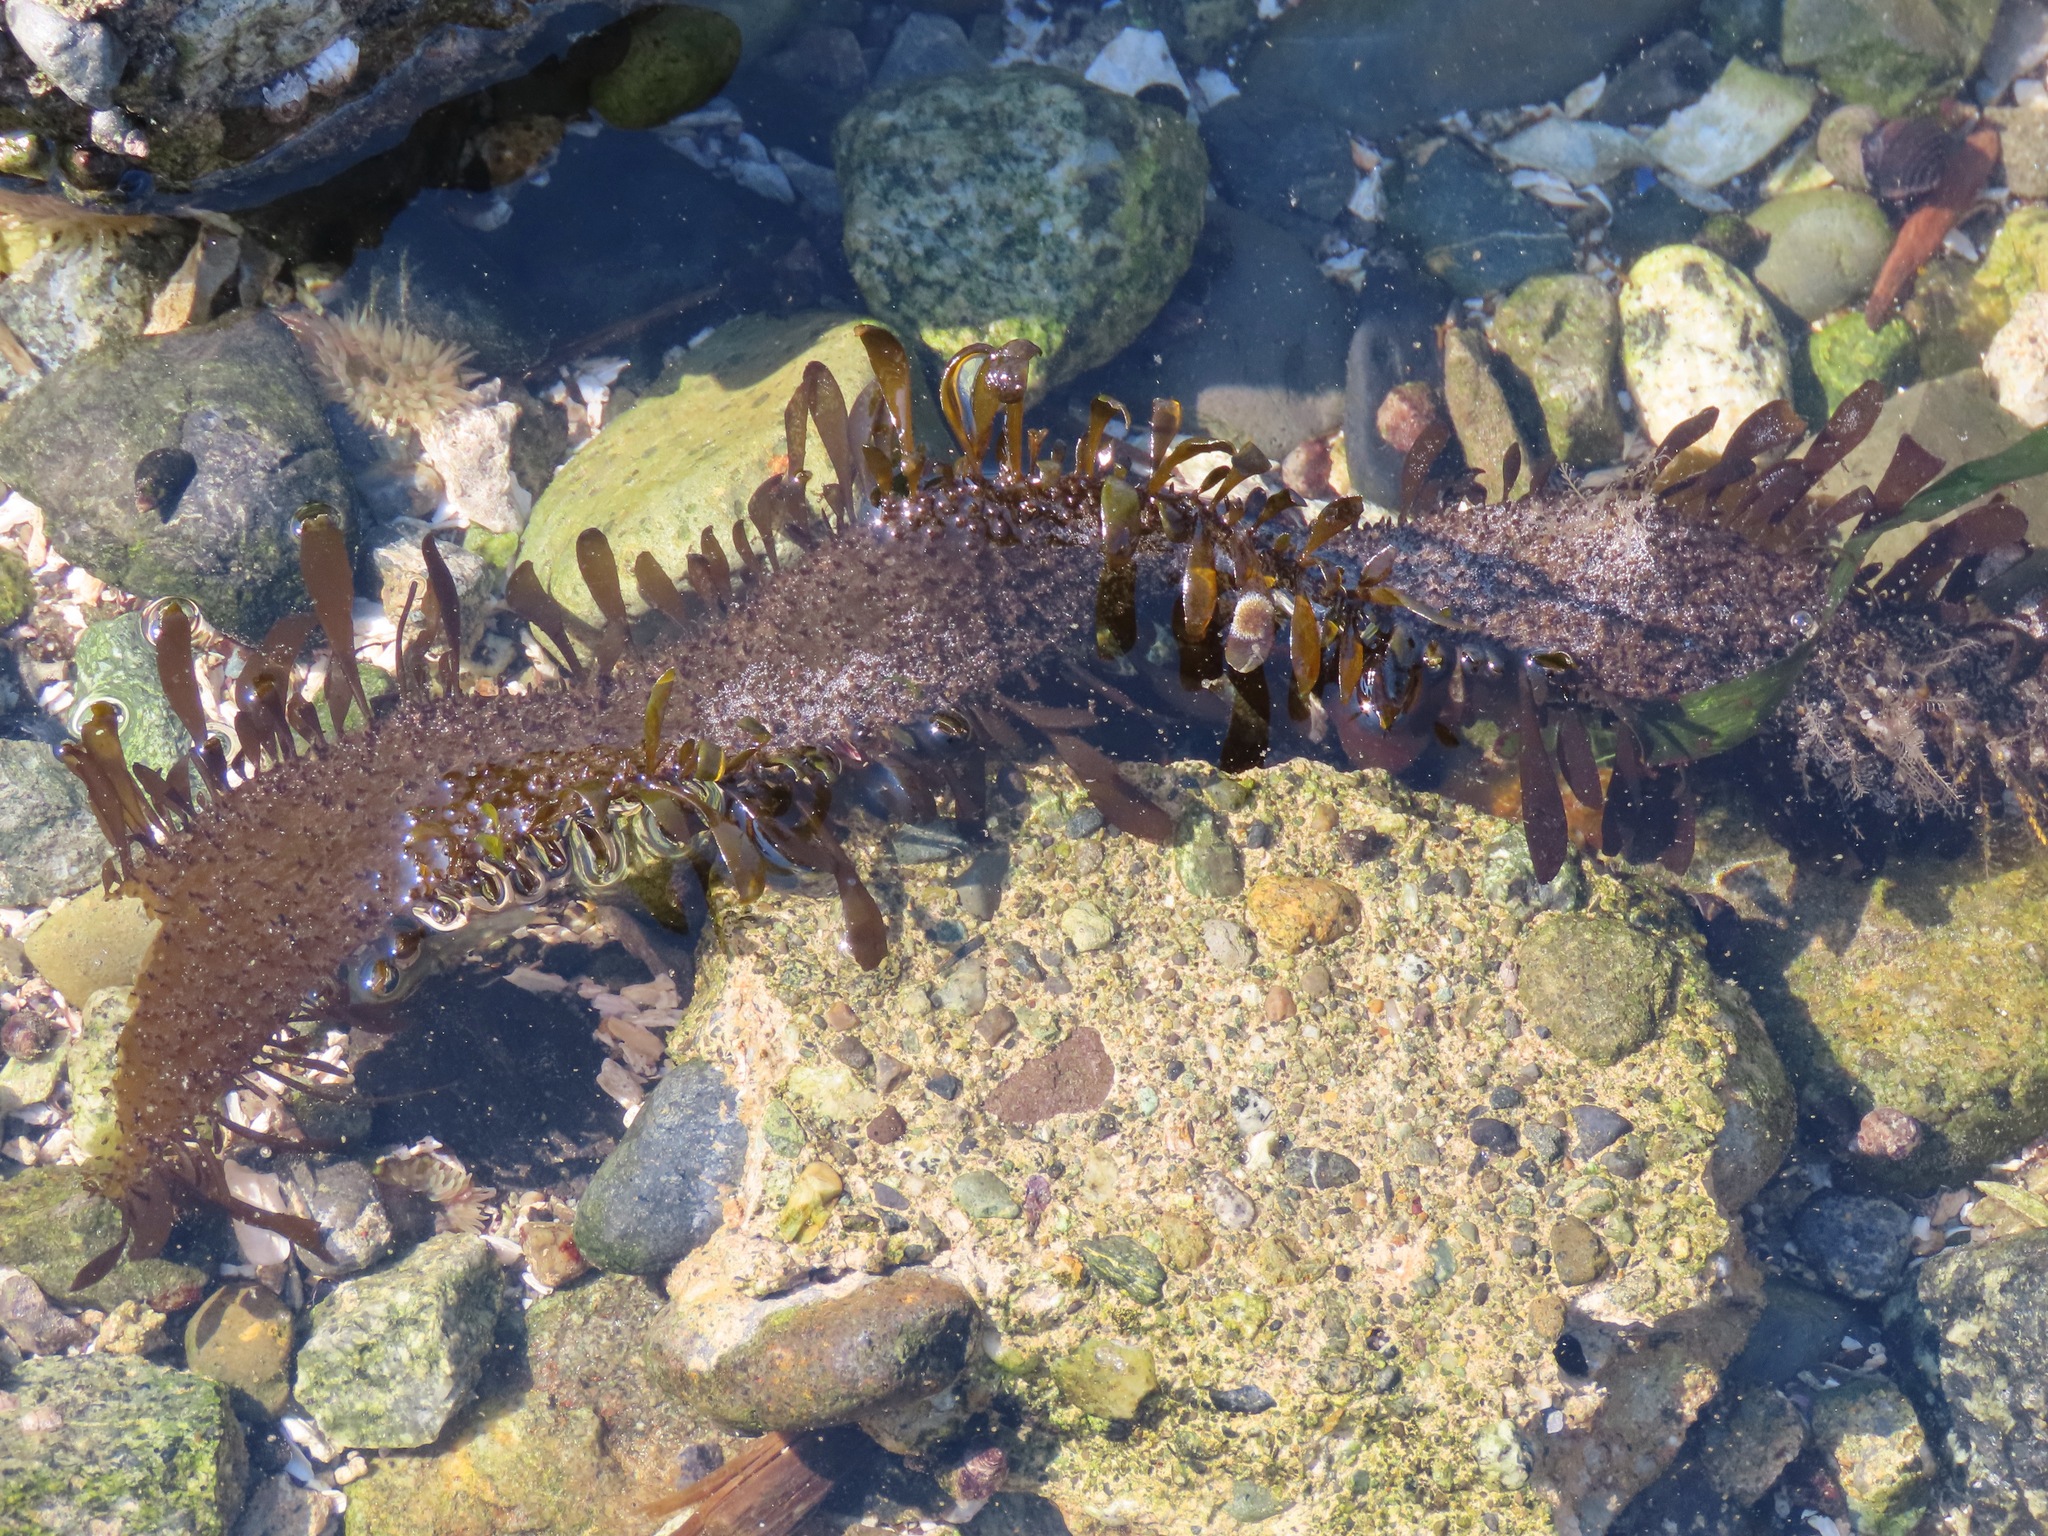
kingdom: Chromista
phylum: Ochrophyta
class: Phaeophyceae
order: Laminariales
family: Lessoniaceae
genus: Egregia
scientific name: Egregia menziesii
